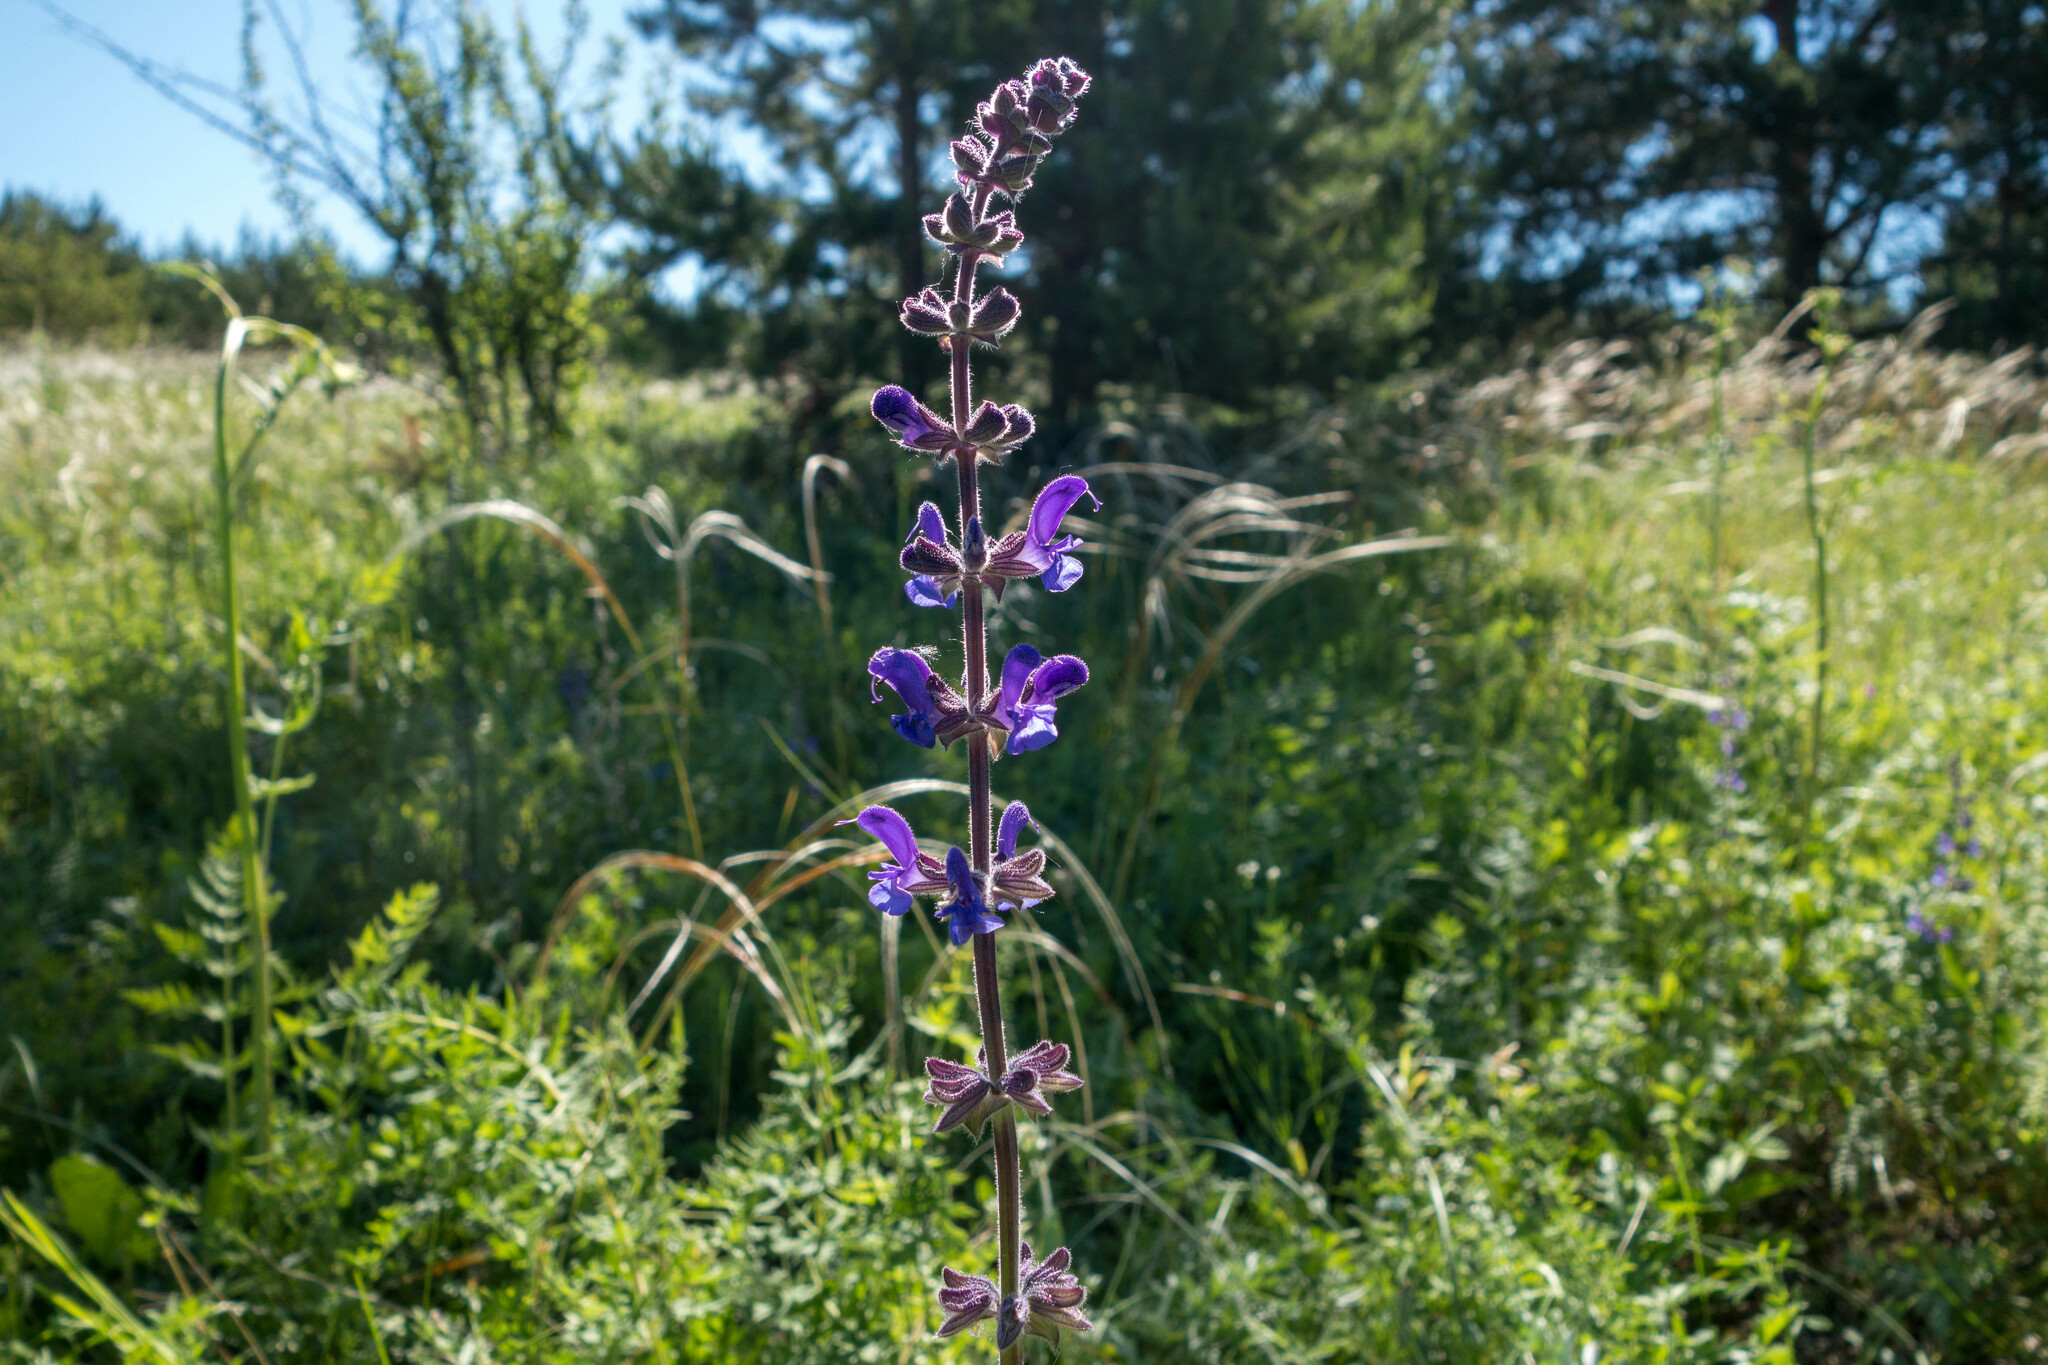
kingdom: Plantae
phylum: Tracheophyta
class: Magnoliopsida
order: Lamiales
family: Lamiaceae
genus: Salvia
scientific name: Salvia dumetorum
